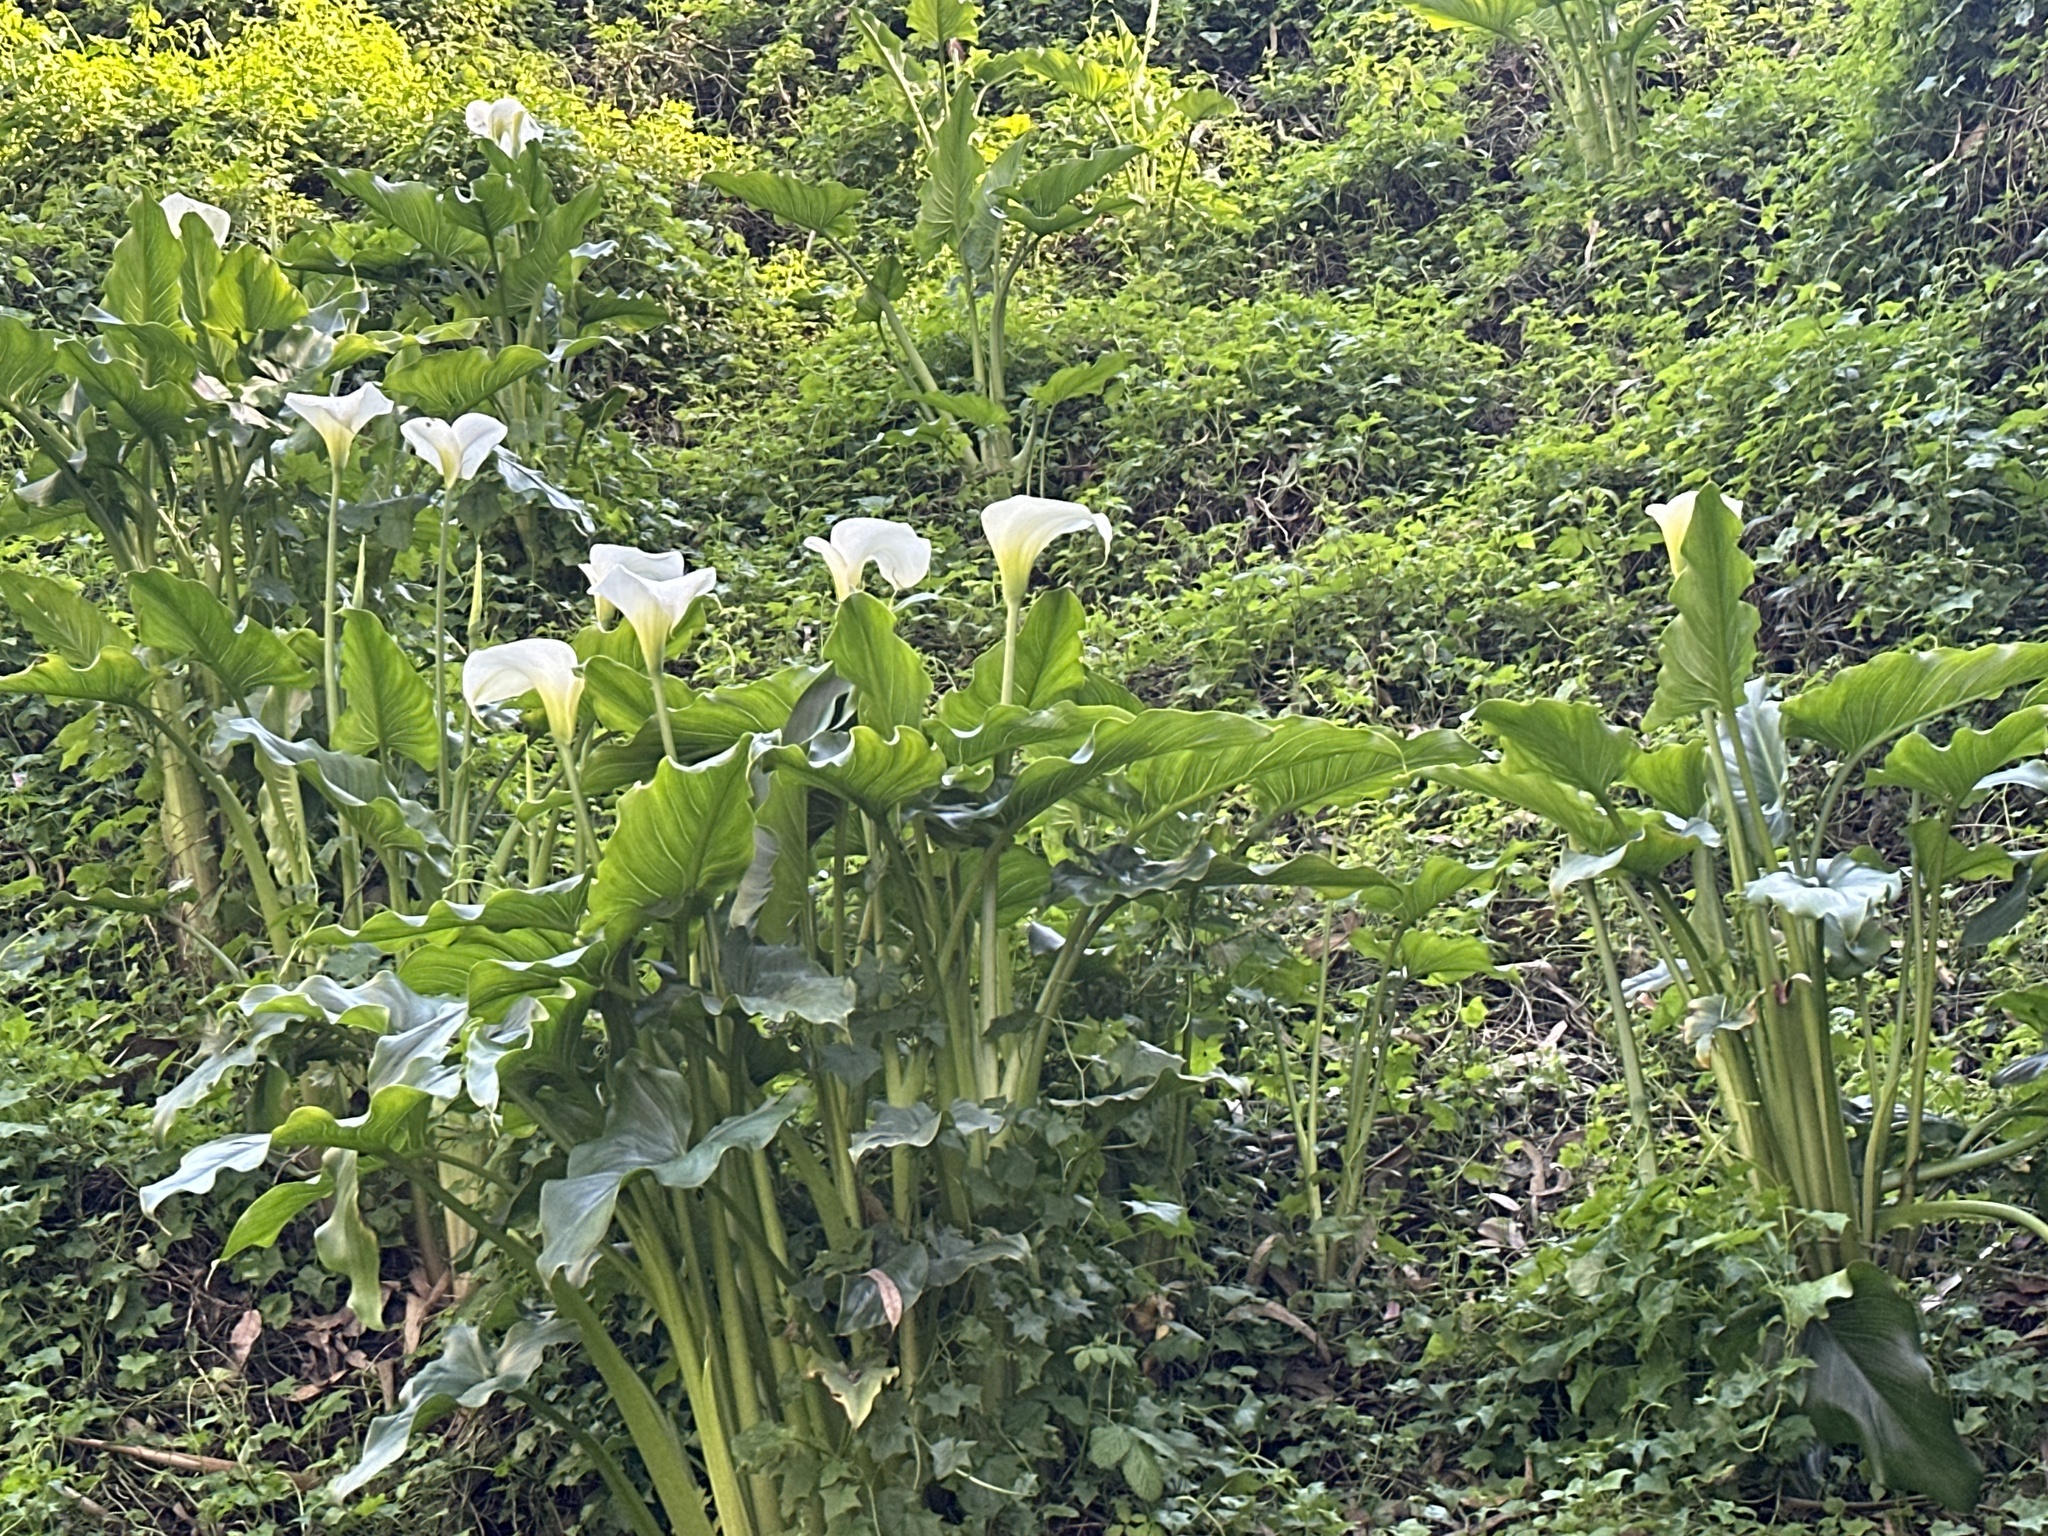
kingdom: Plantae
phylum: Tracheophyta
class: Liliopsida
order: Alismatales
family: Araceae
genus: Zantedeschia
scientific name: Zantedeschia aethiopica
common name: Altar-lily
